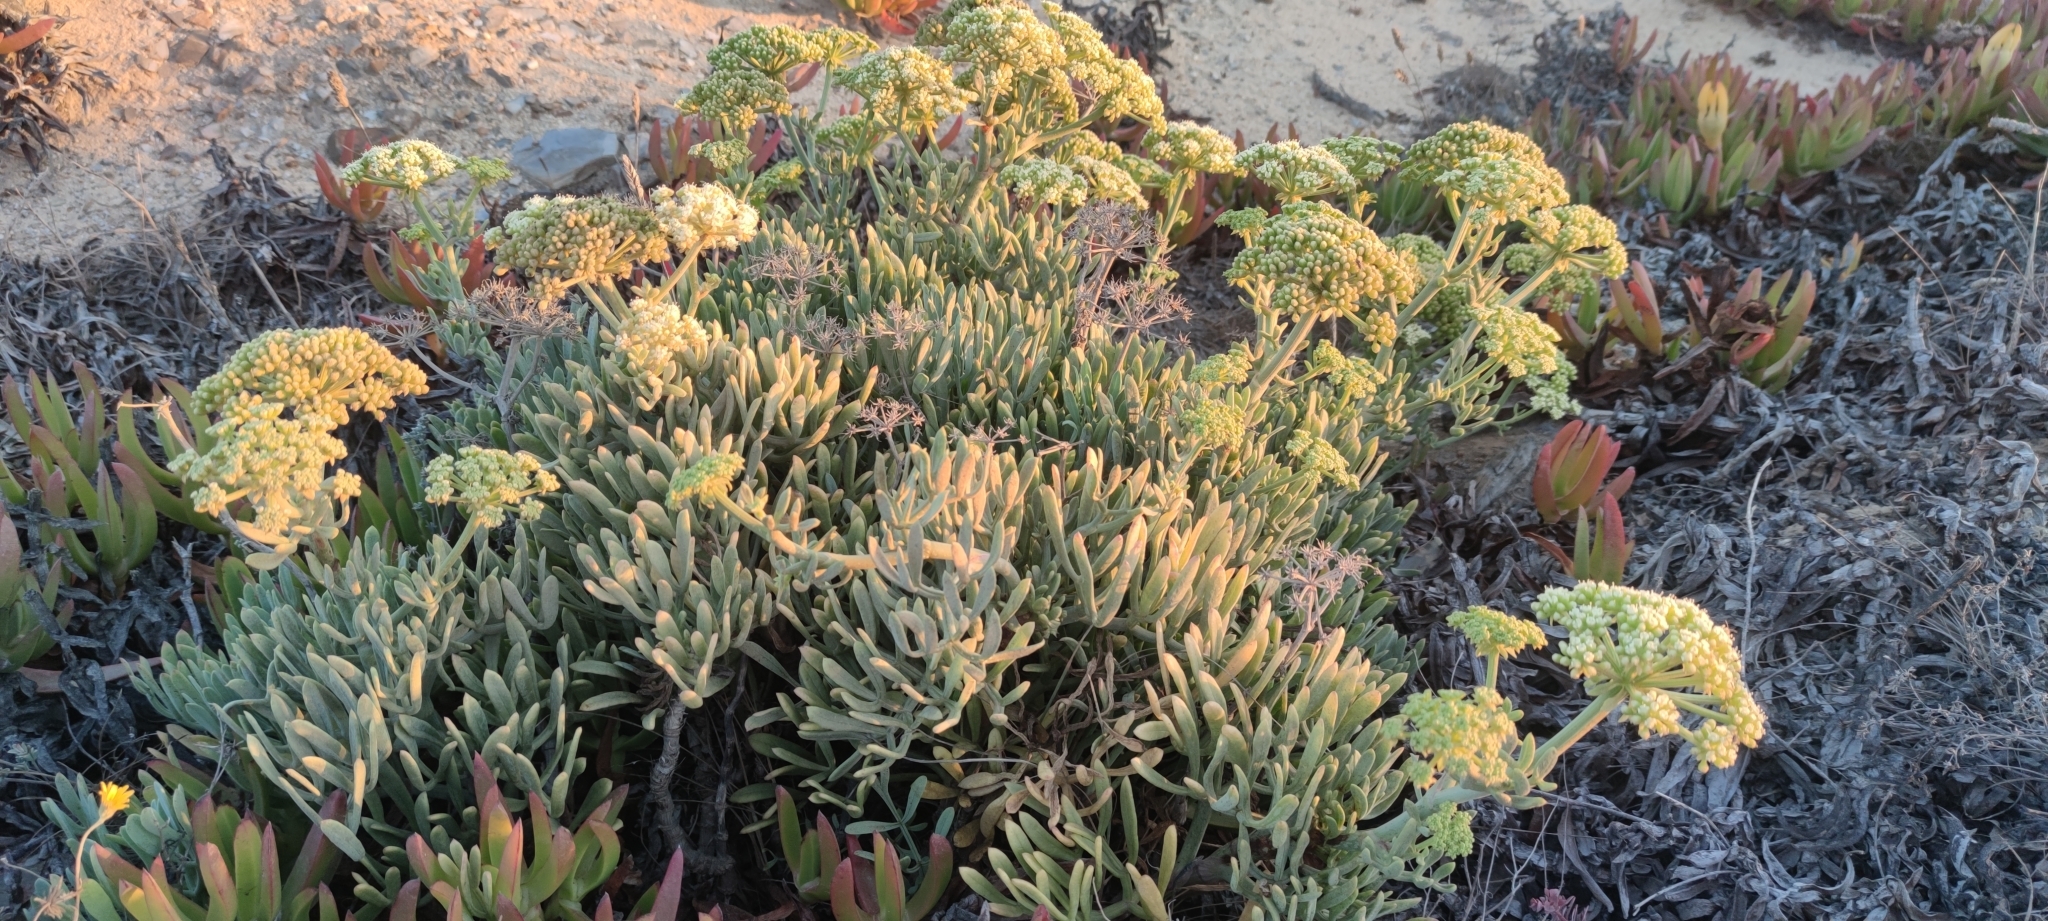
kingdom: Plantae
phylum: Tracheophyta
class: Magnoliopsida
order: Apiales
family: Apiaceae
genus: Crithmum
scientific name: Crithmum maritimum
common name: Rock samphire
